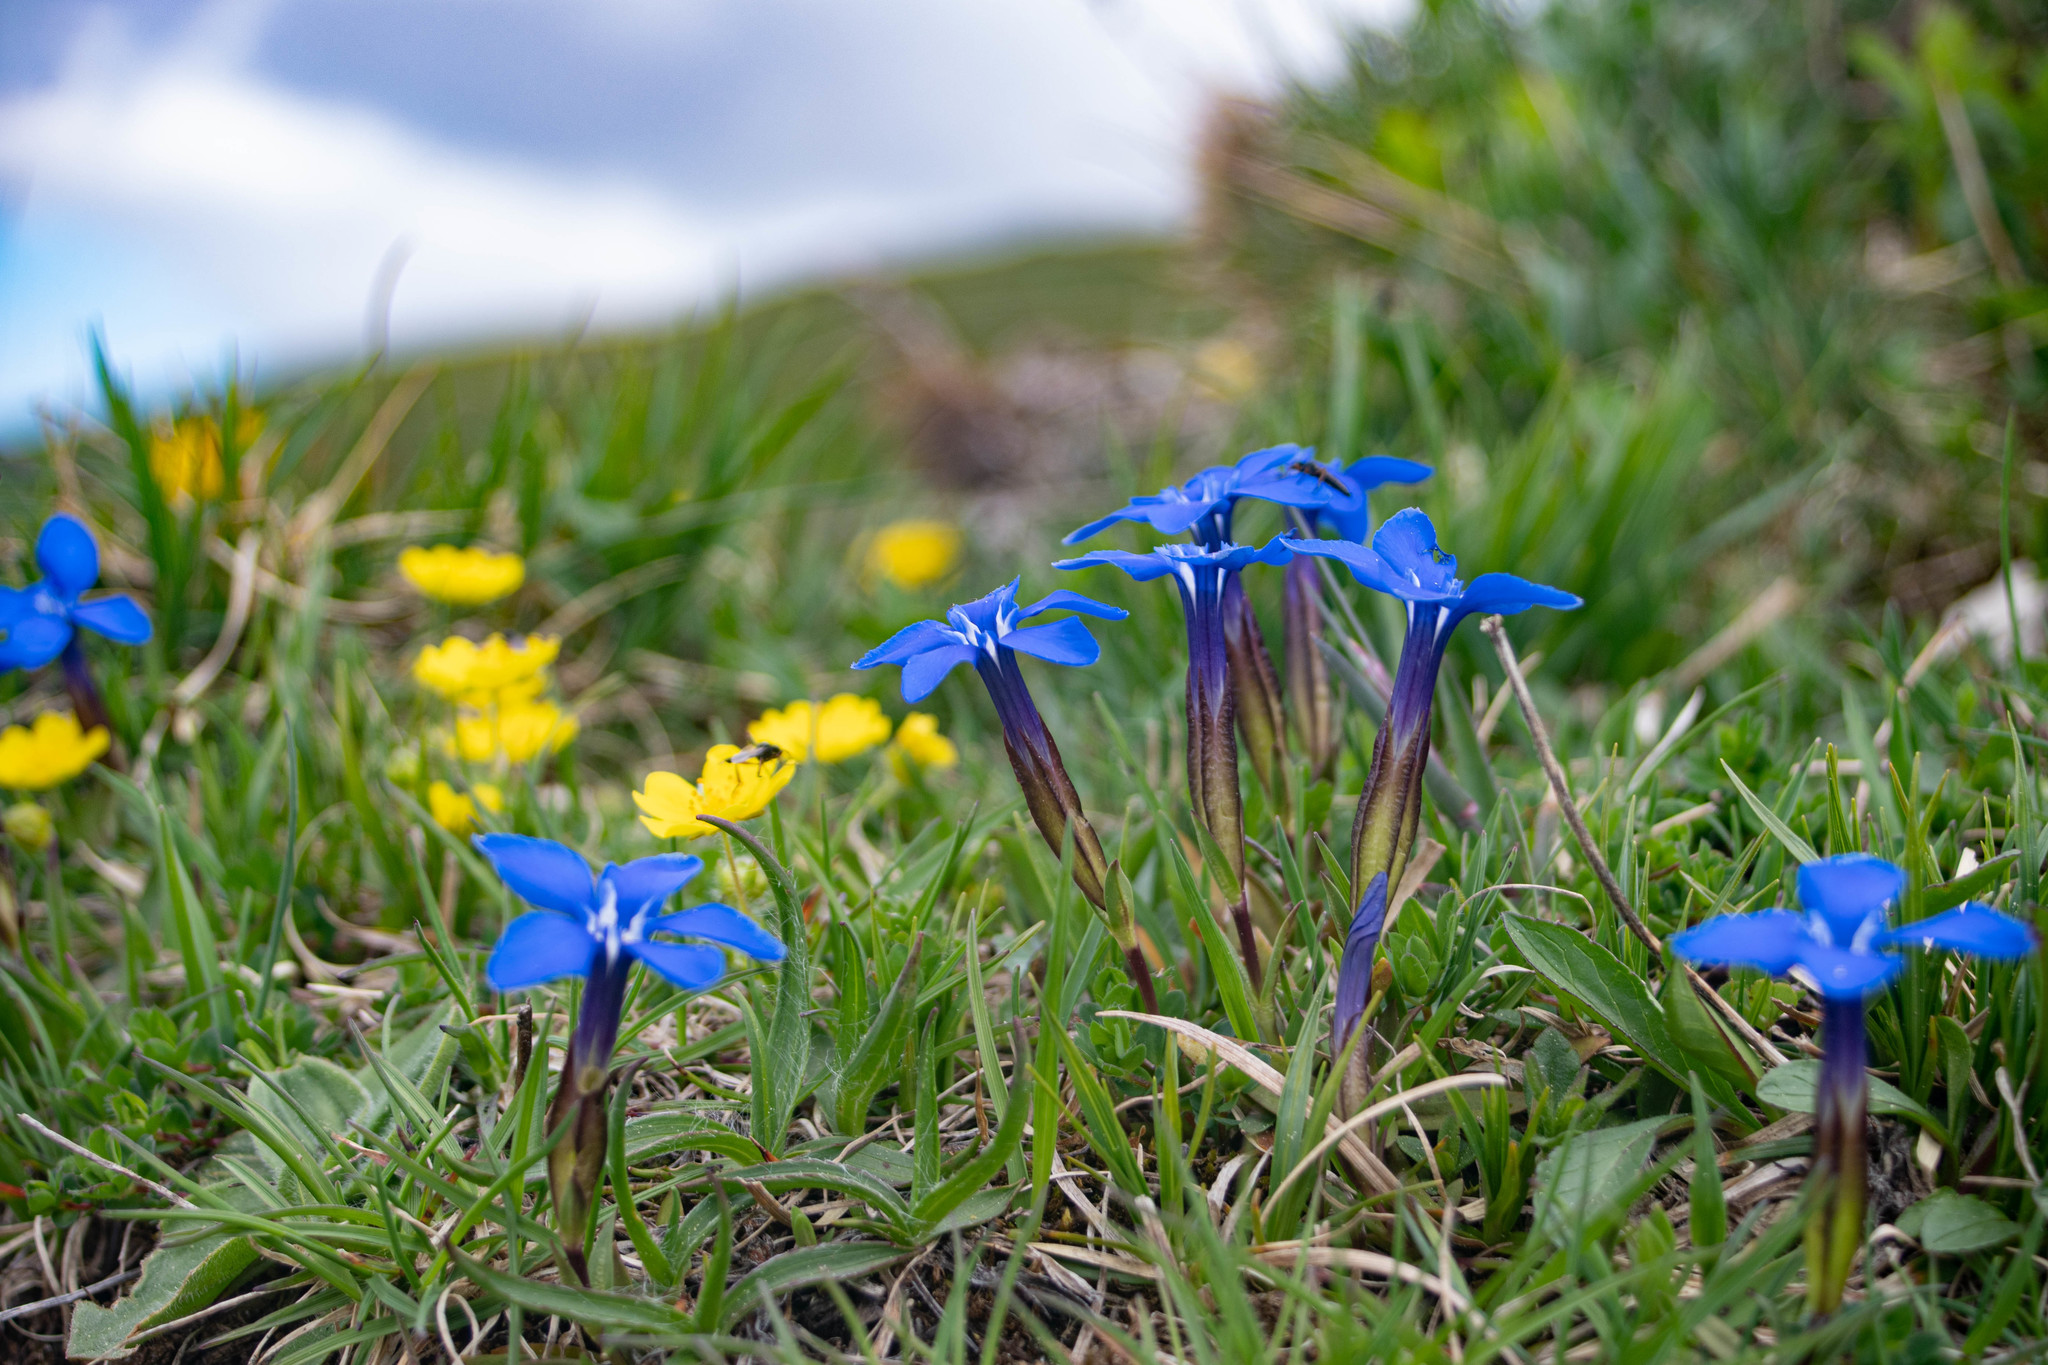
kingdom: Plantae
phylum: Tracheophyta
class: Magnoliopsida
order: Gentianales
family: Gentianaceae
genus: Gentiana
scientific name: Gentiana verna
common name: Spring gentian
